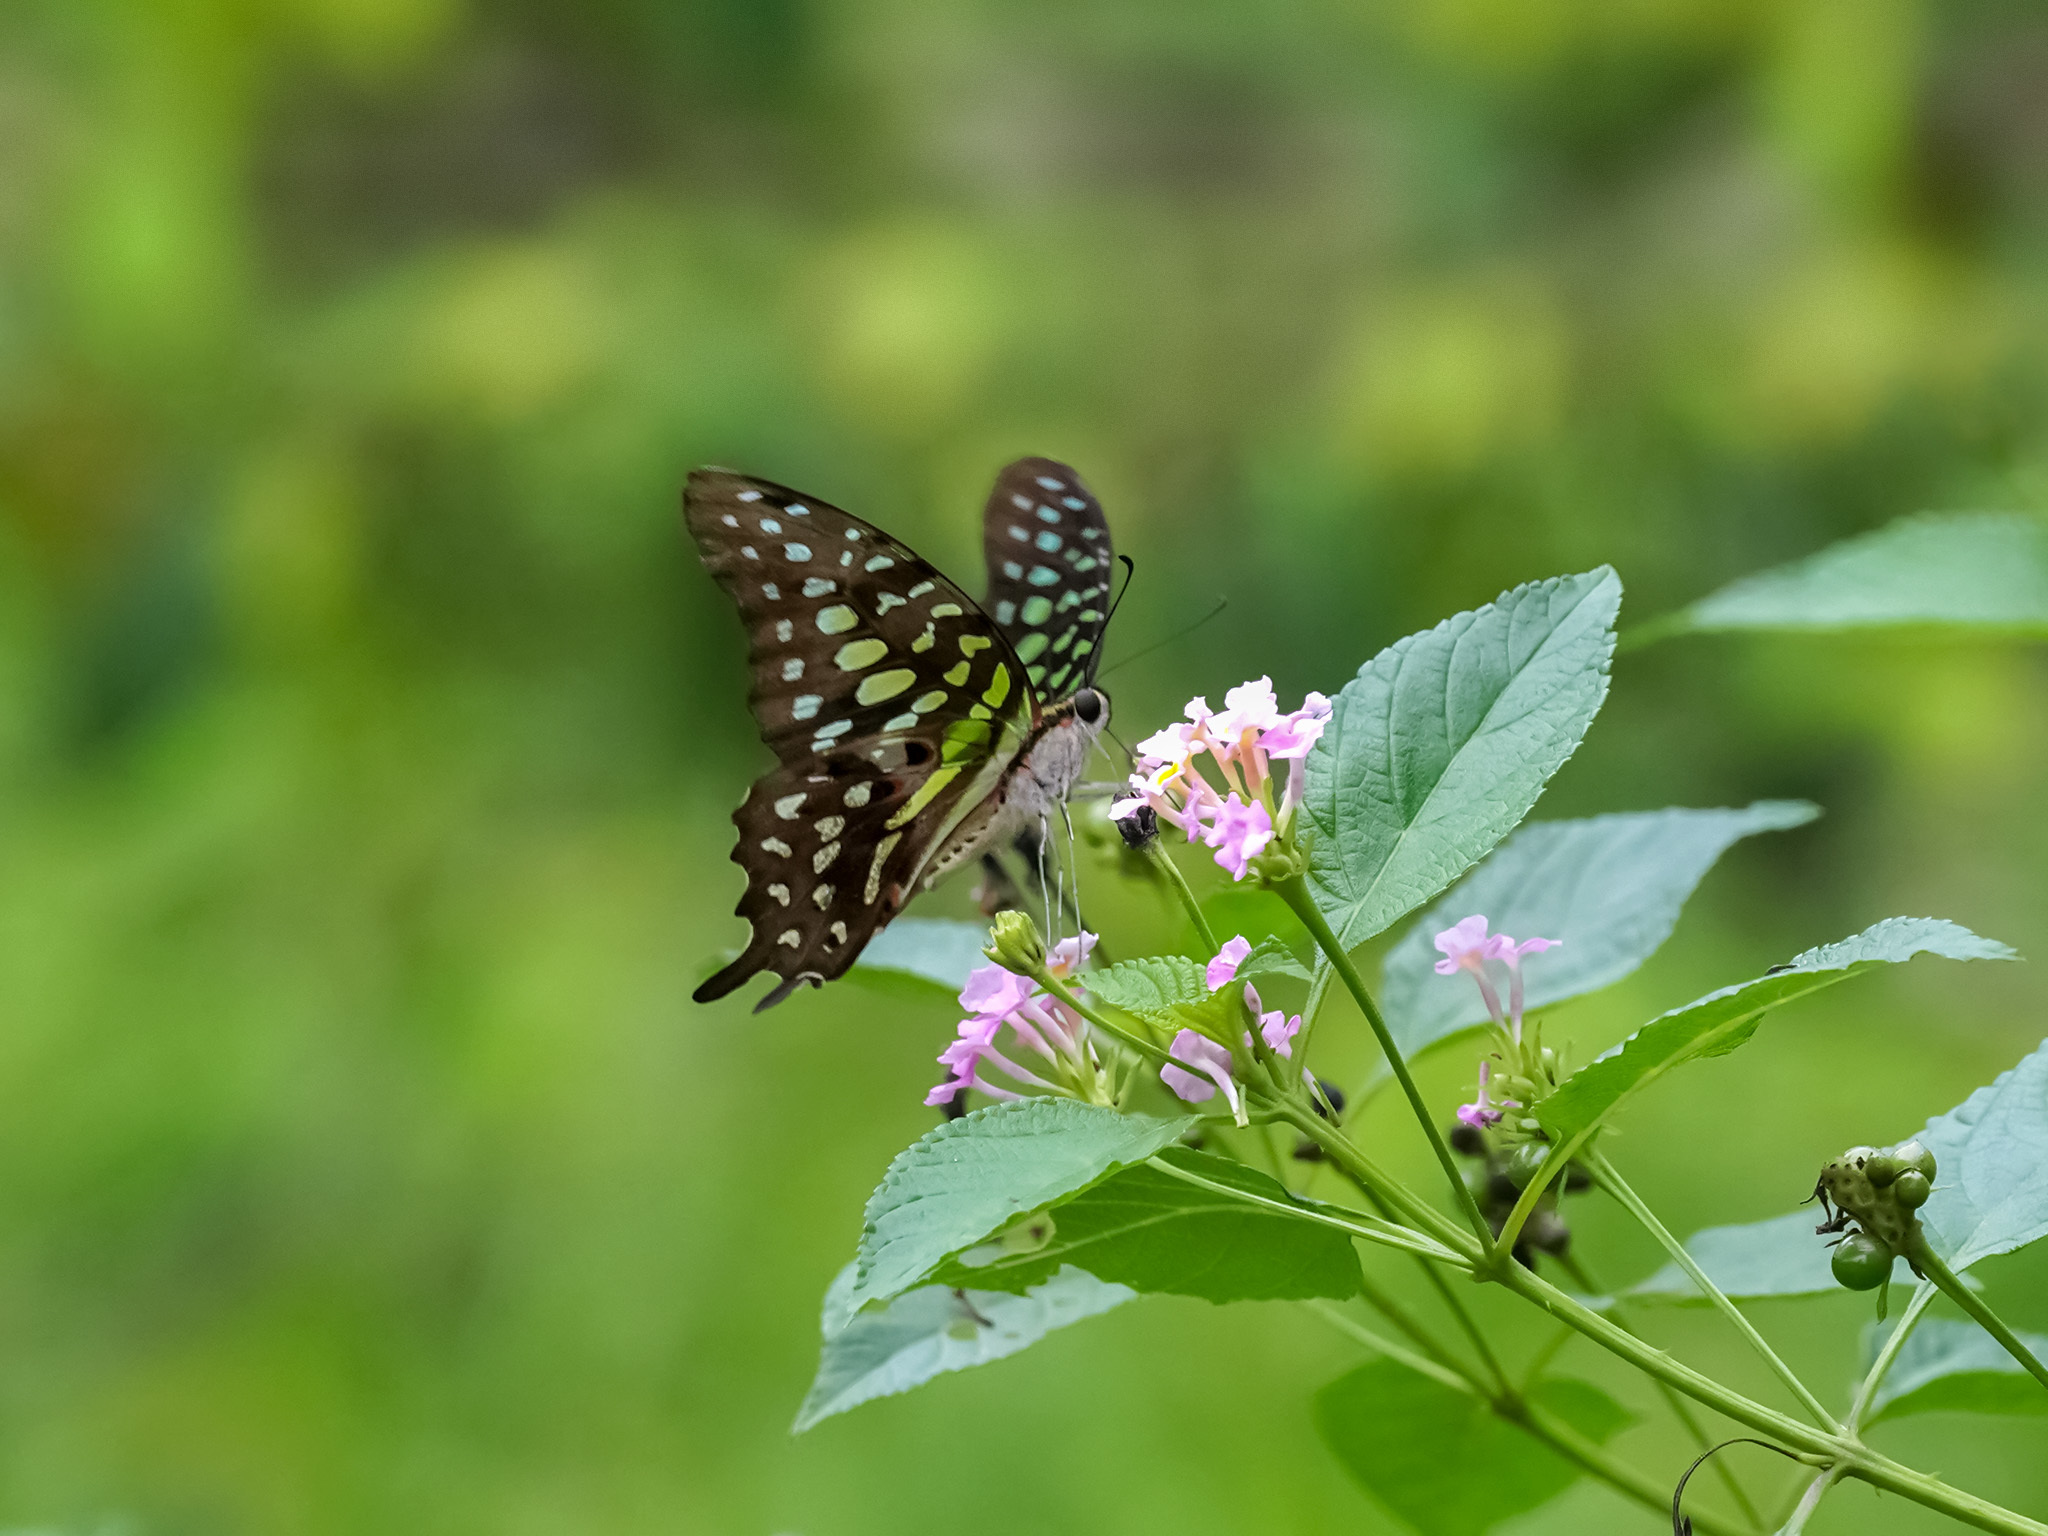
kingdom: Animalia
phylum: Arthropoda
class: Insecta
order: Lepidoptera
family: Papilionidae
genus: Graphium
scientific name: Graphium agamemnon
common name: Tailed jay
